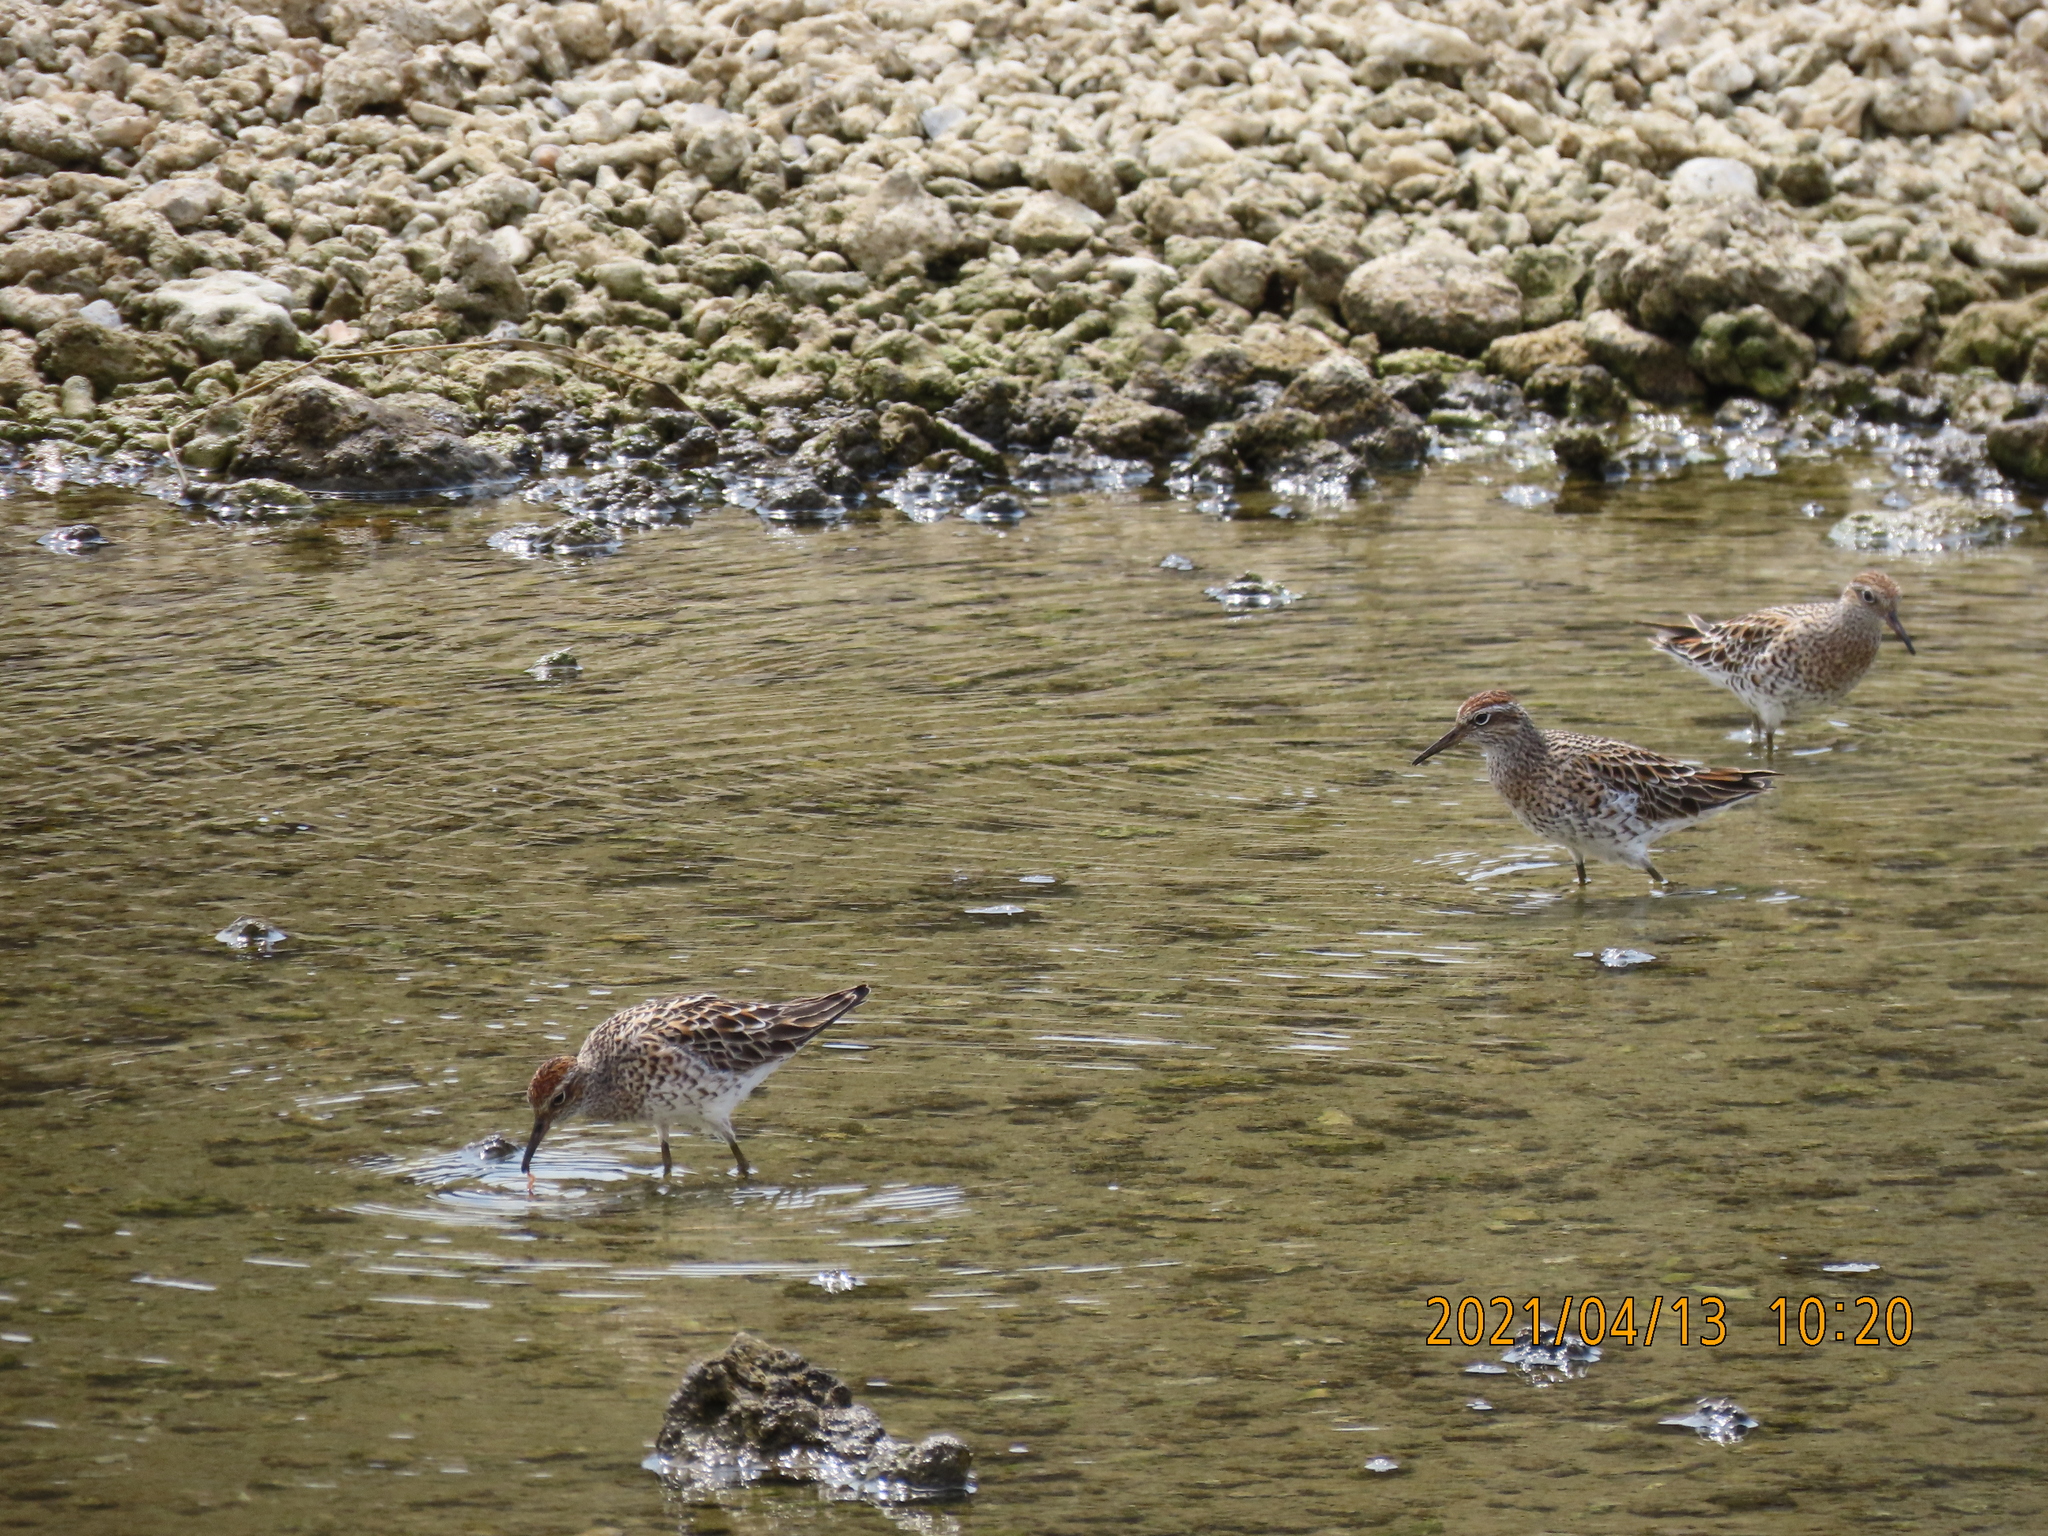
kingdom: Animalia
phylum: Chordata
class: Aves
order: Charadriiformes
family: Scolopacidae
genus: Calidris
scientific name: Calidris acuminata
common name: Sharp-tailed sandpiper
